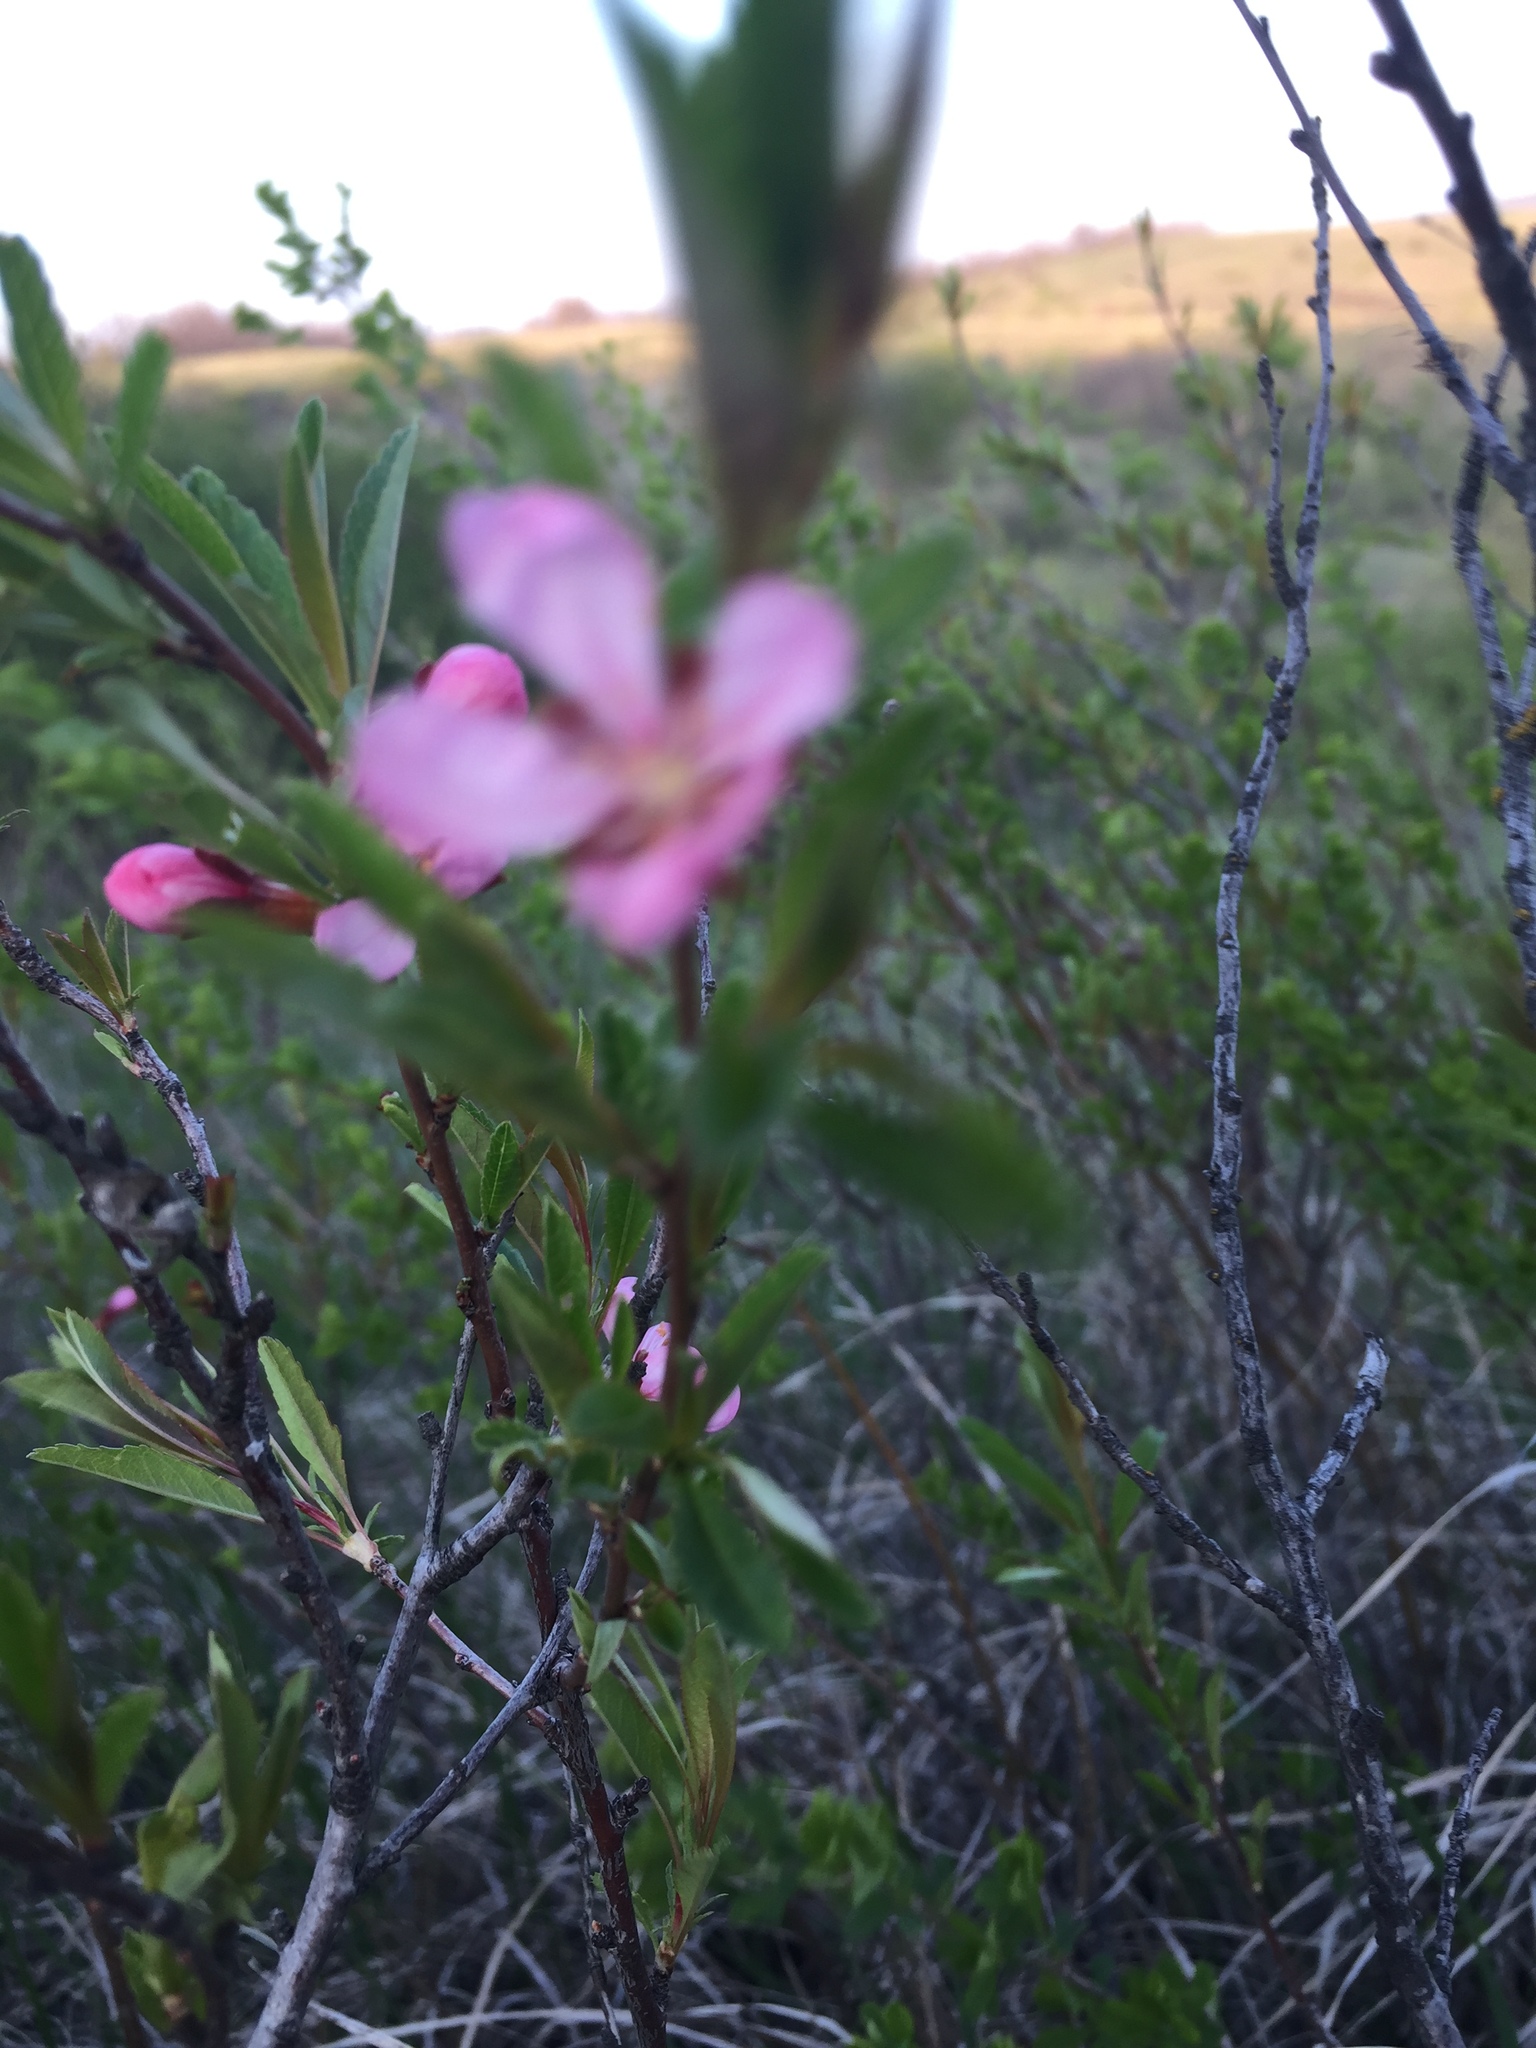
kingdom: Plantae
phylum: Tracheophyta
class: Magnoliopsida
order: Rosales
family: Rosaceae
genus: Prunus
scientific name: Prunus tenella
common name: Dwarf russian almond
